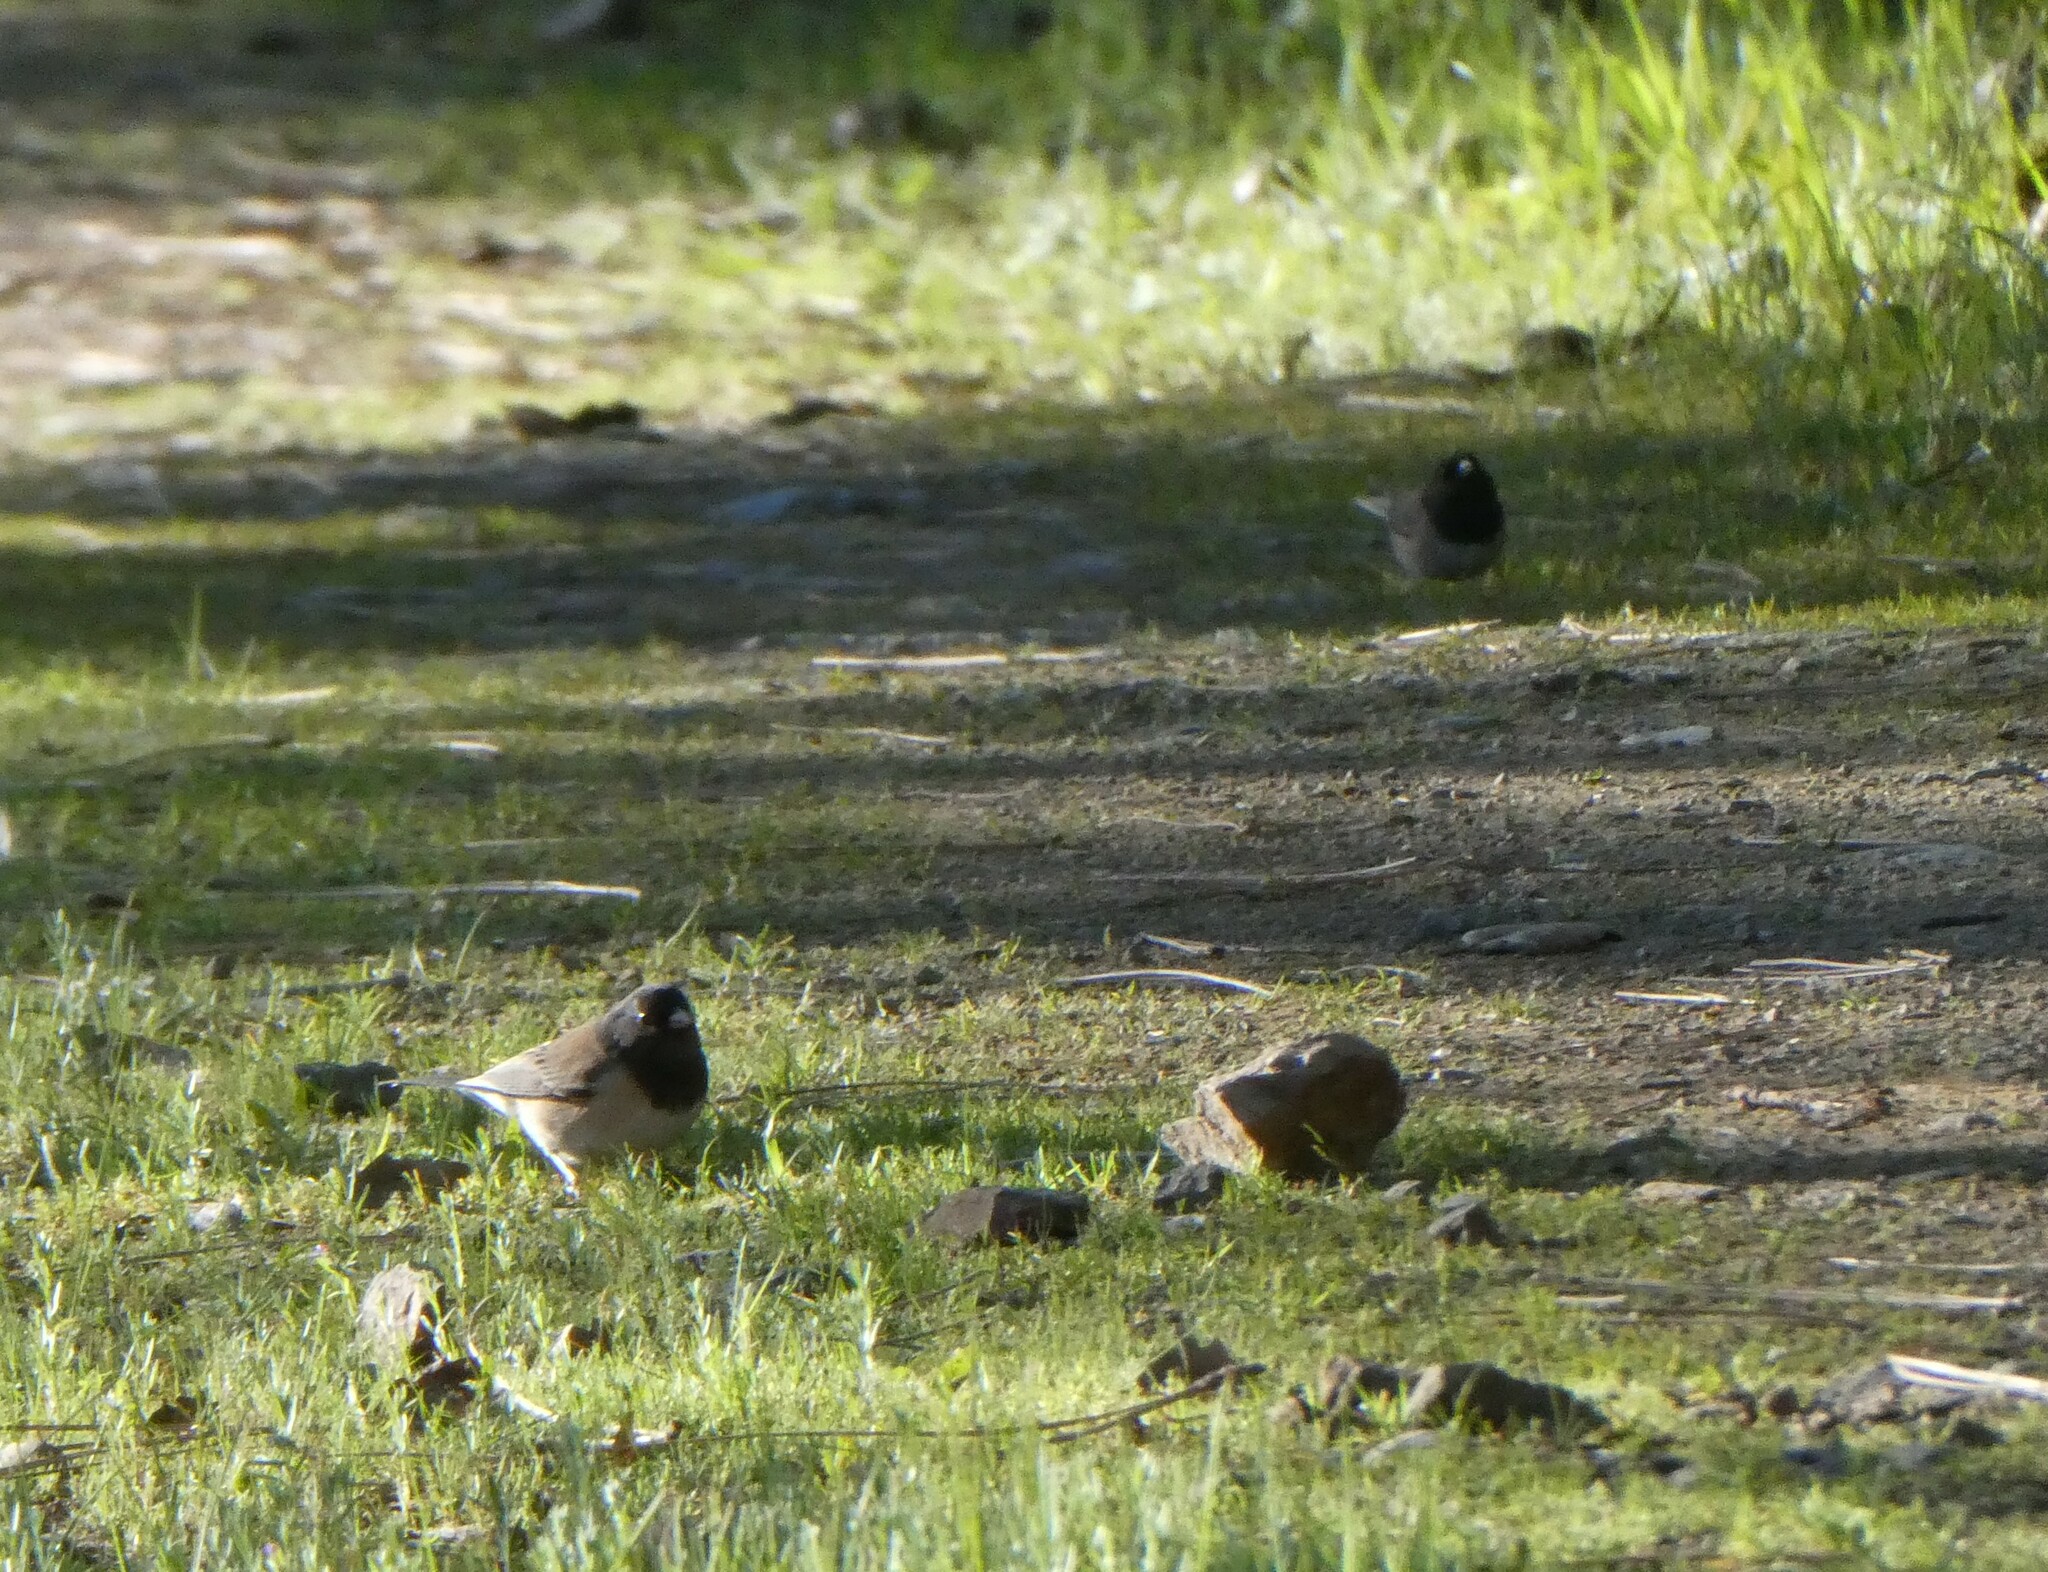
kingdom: Animalia
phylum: Chordata
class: Aves
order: Passeriformes
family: Passerellidae
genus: Junco
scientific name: Junco hyemalis
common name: Dark-eyed junco
